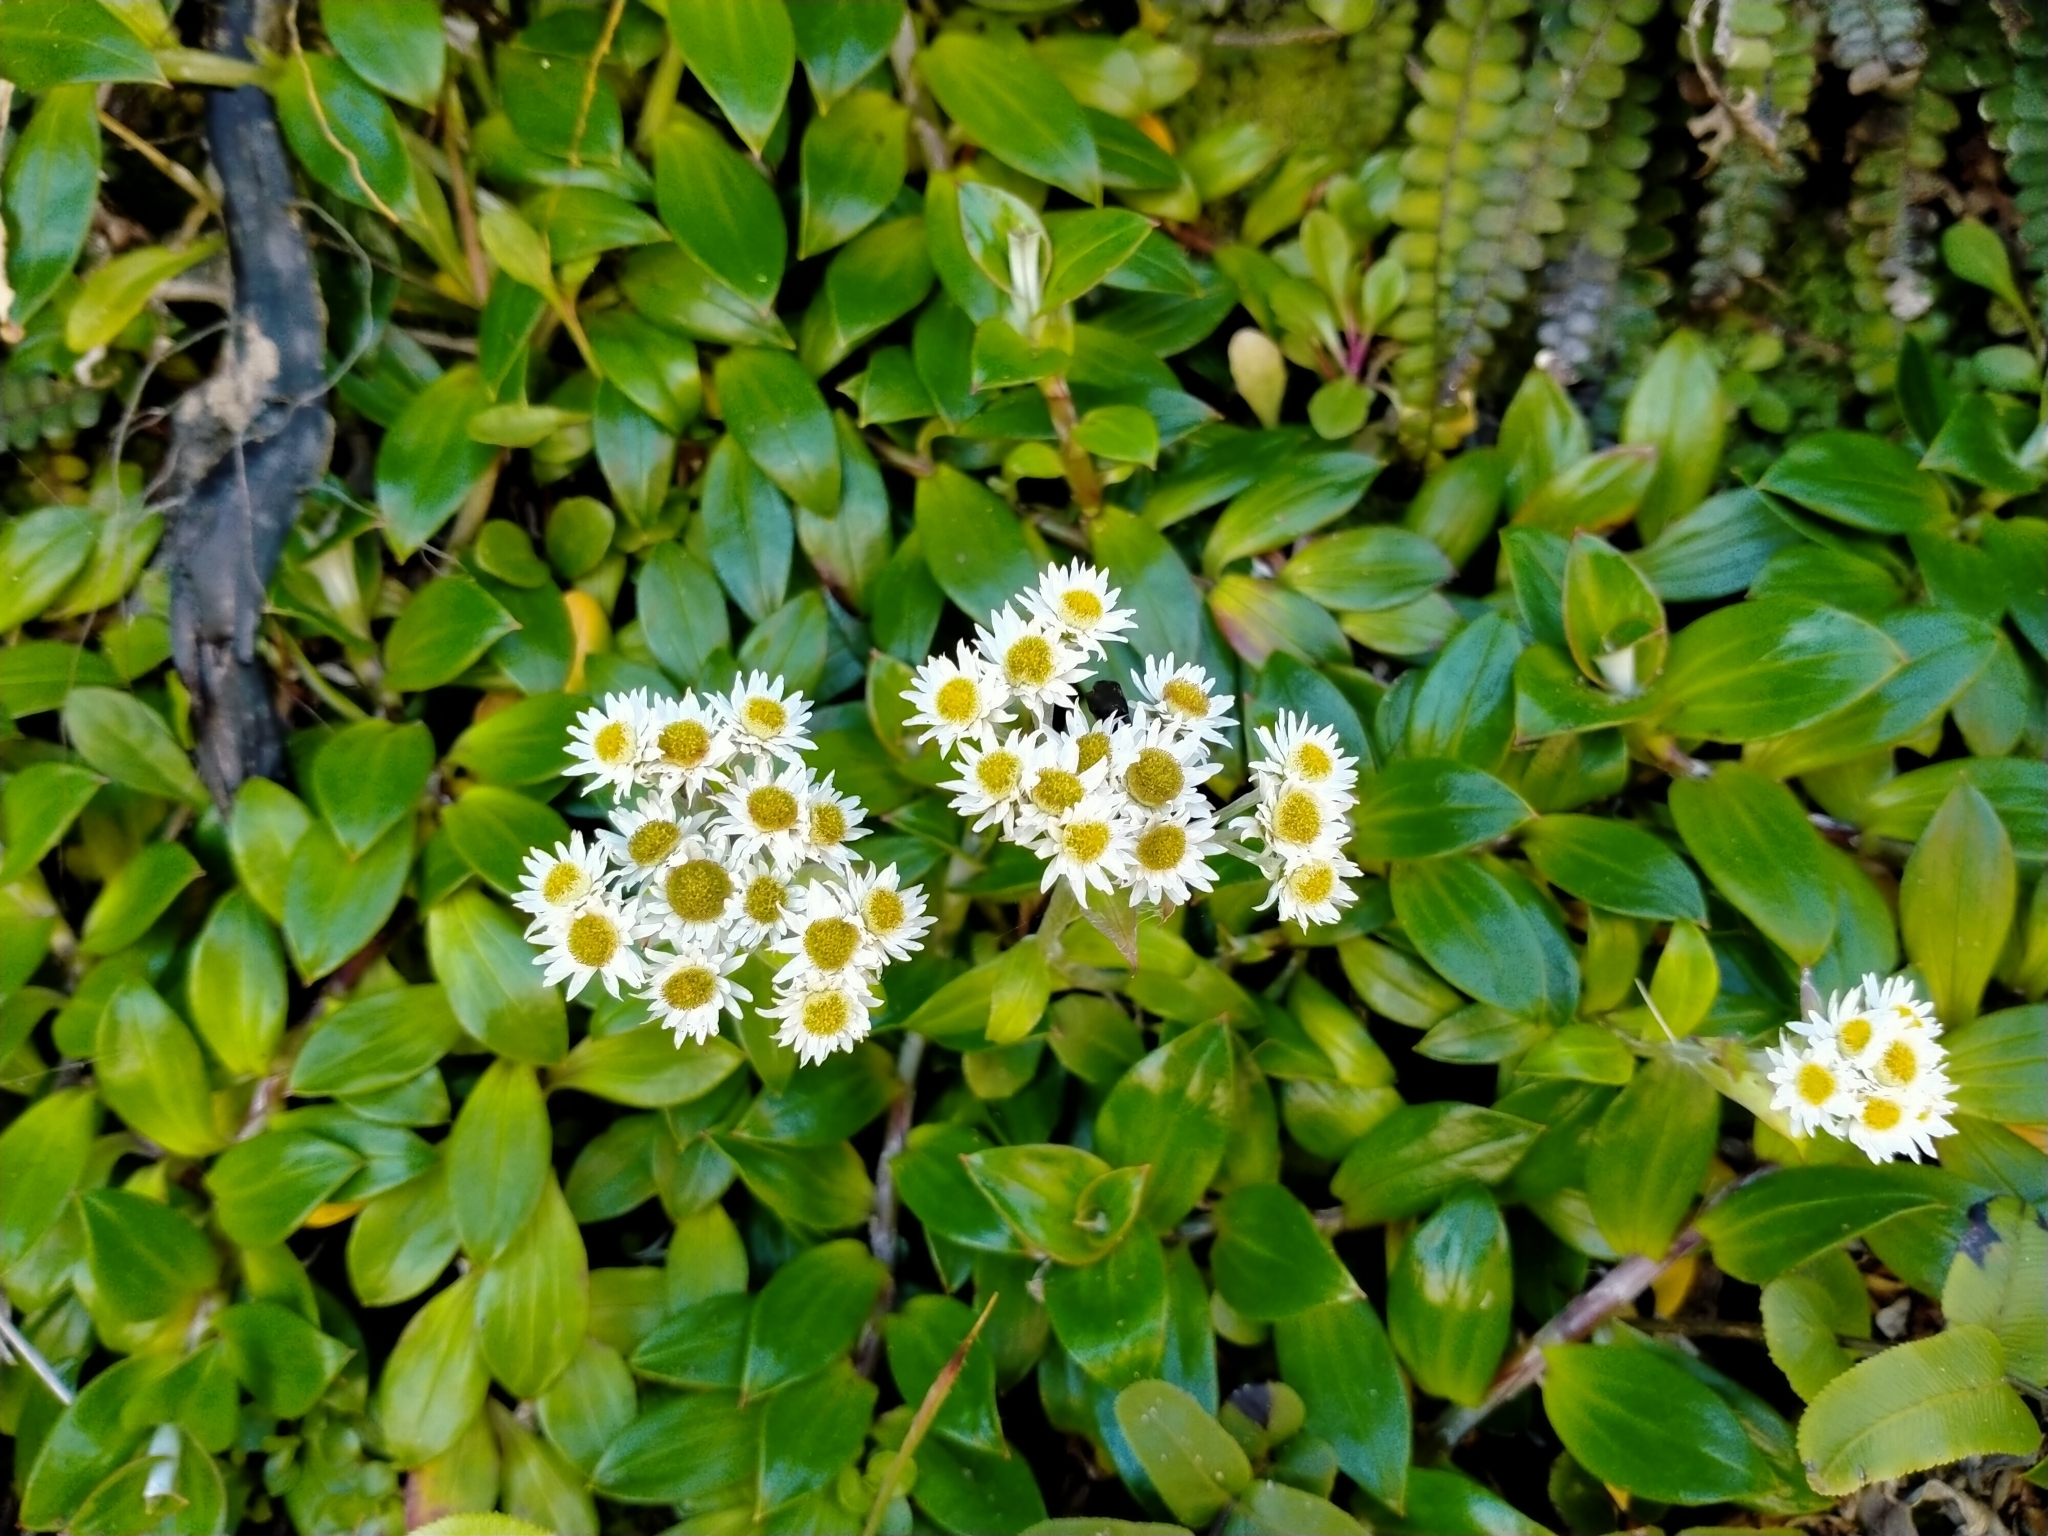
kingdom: Plantae
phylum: Tracheophyta
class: Magnoliopsida
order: Asterales
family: Asteraceae
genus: Anaphalioides
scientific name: Anaphalioides trinervis
